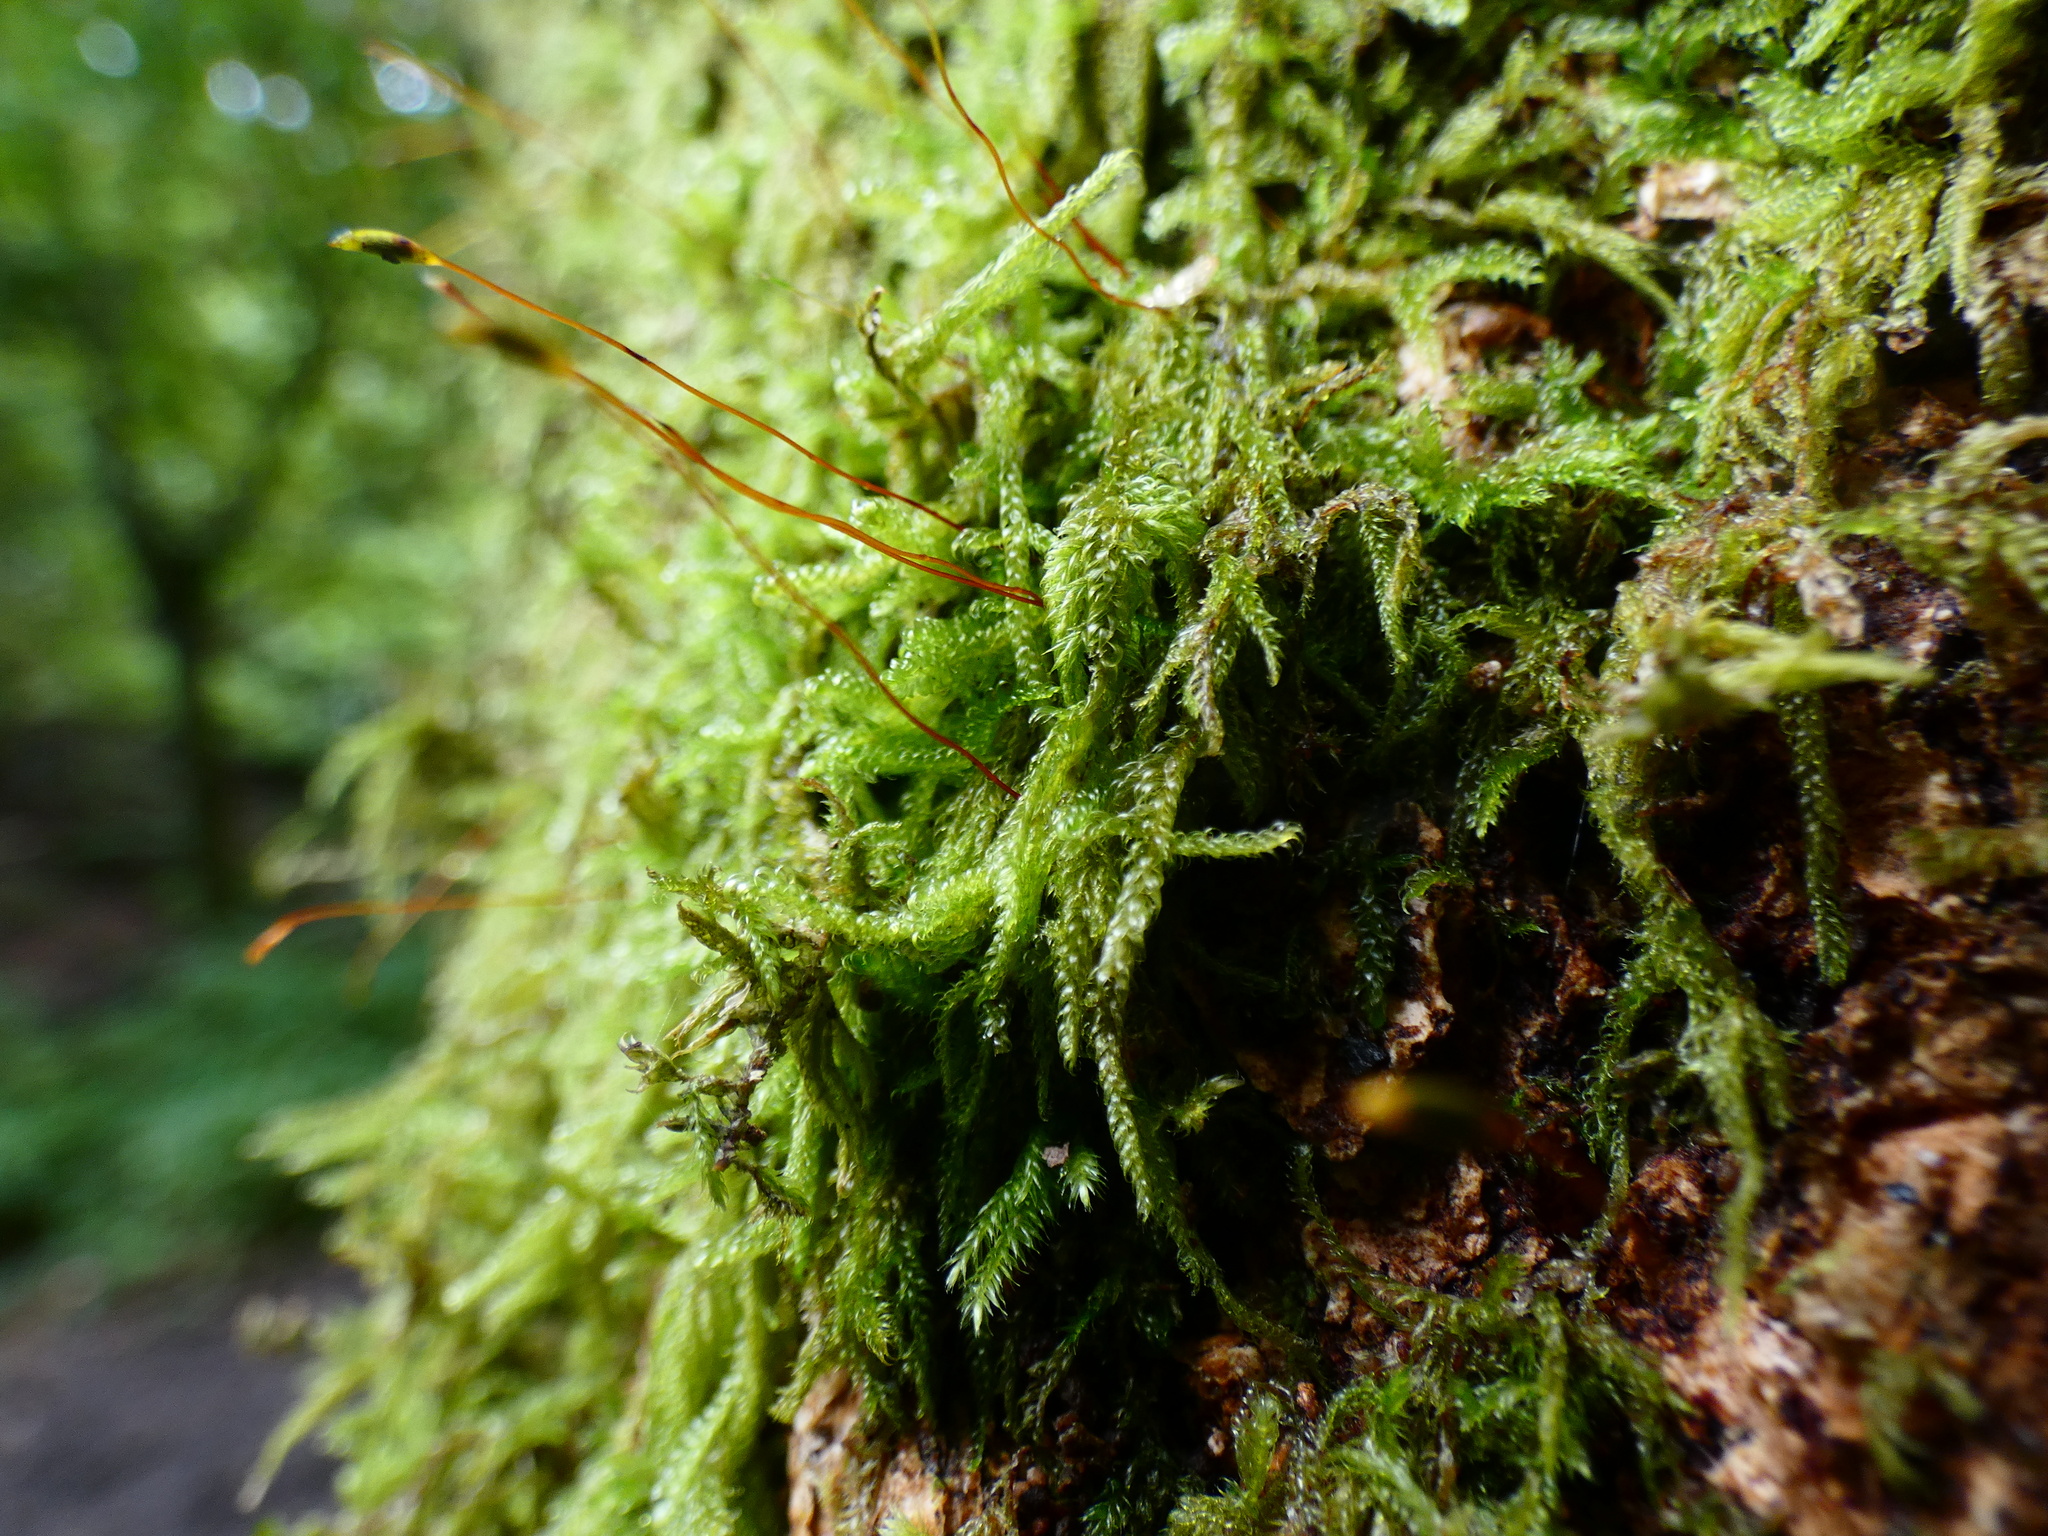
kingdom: Plantae
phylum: Bryophyta
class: Bryopsida
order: Hypnales
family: Hypnaceae
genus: Hypnum
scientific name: Hypnum andoi
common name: Ando's plait moss
